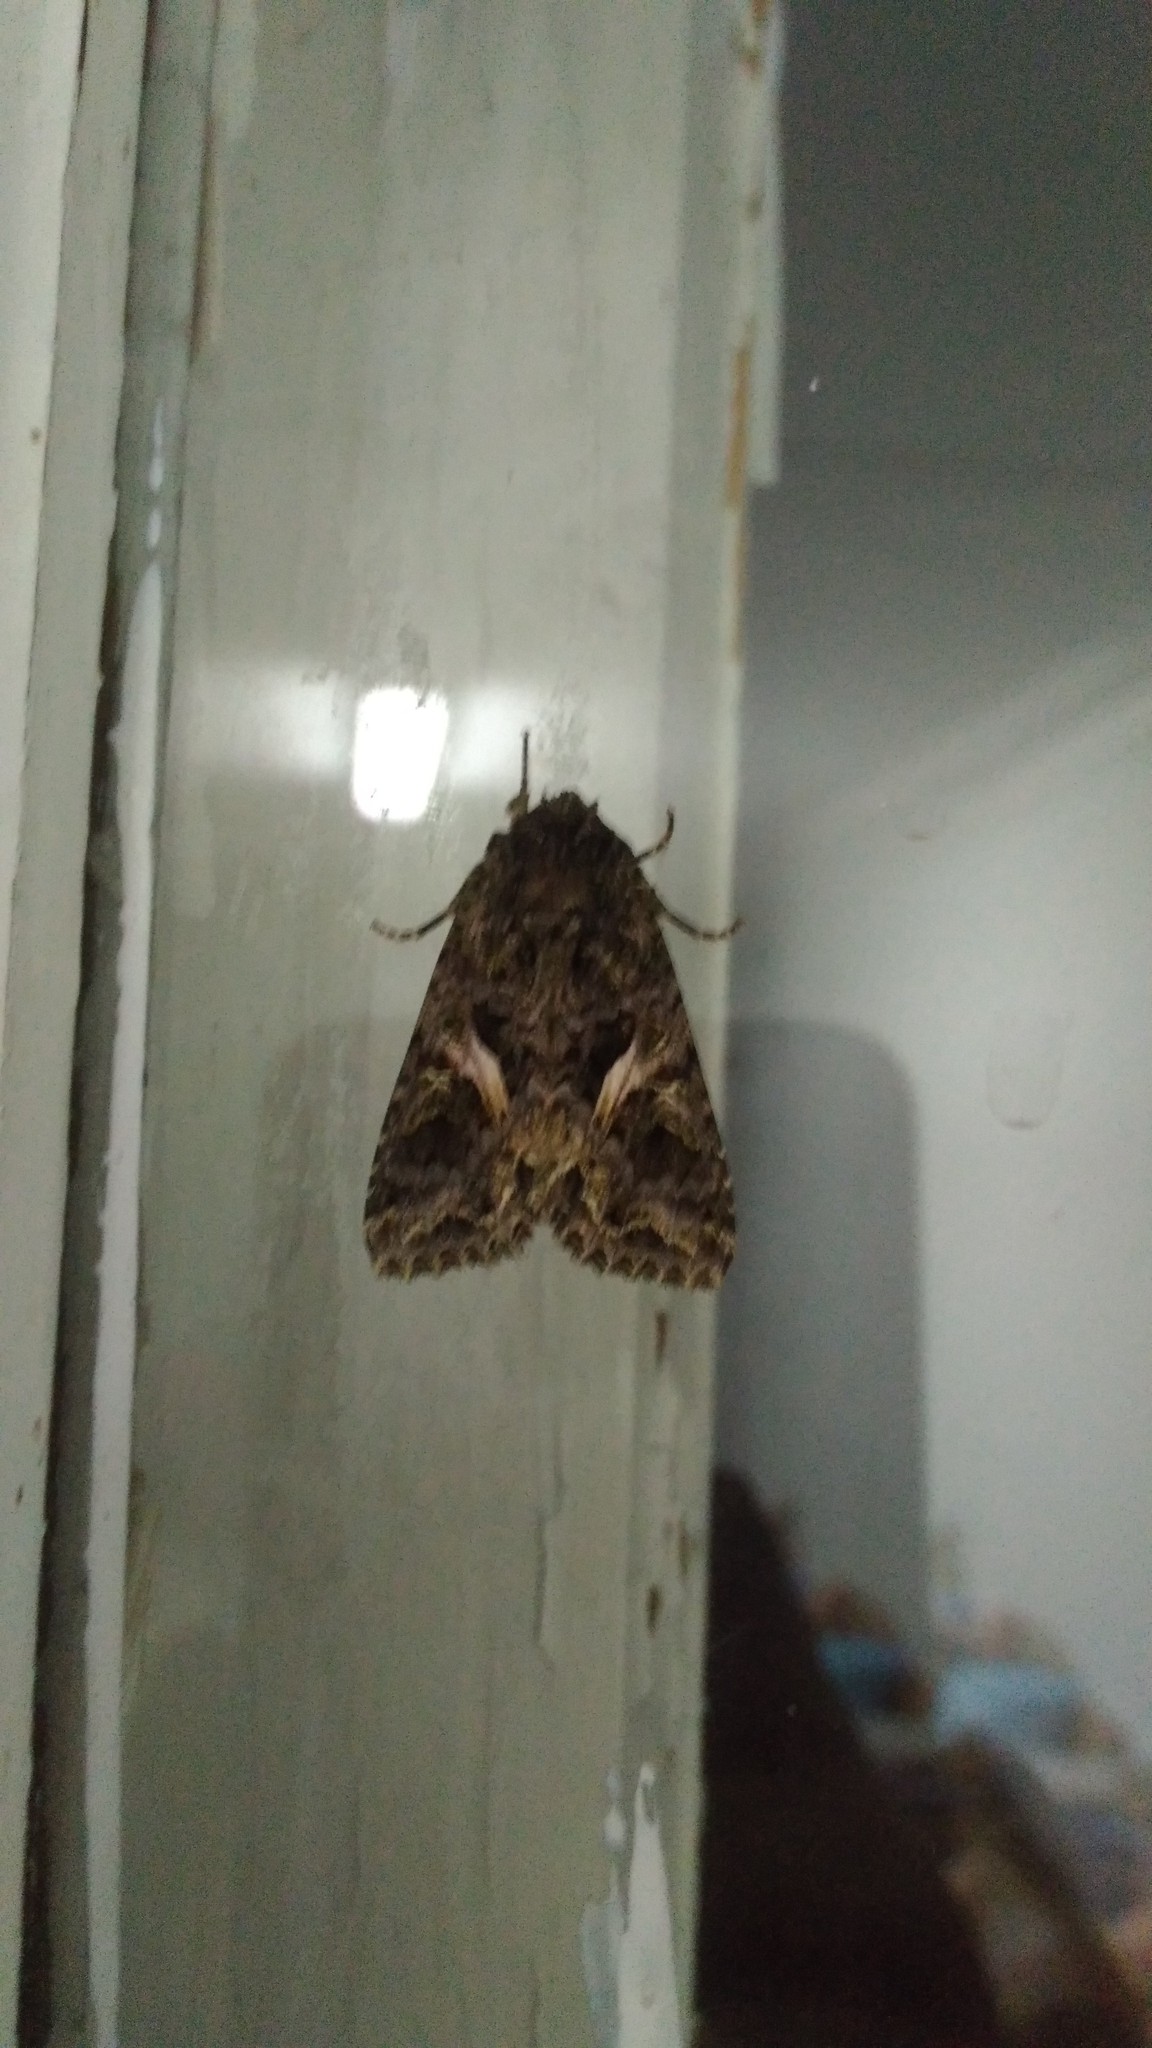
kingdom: Animalia
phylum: Arthropoda
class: Insecta
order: Lepidoptera
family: Noctuidae
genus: Trachea
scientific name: Trachea atriplicis
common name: Orache moth
